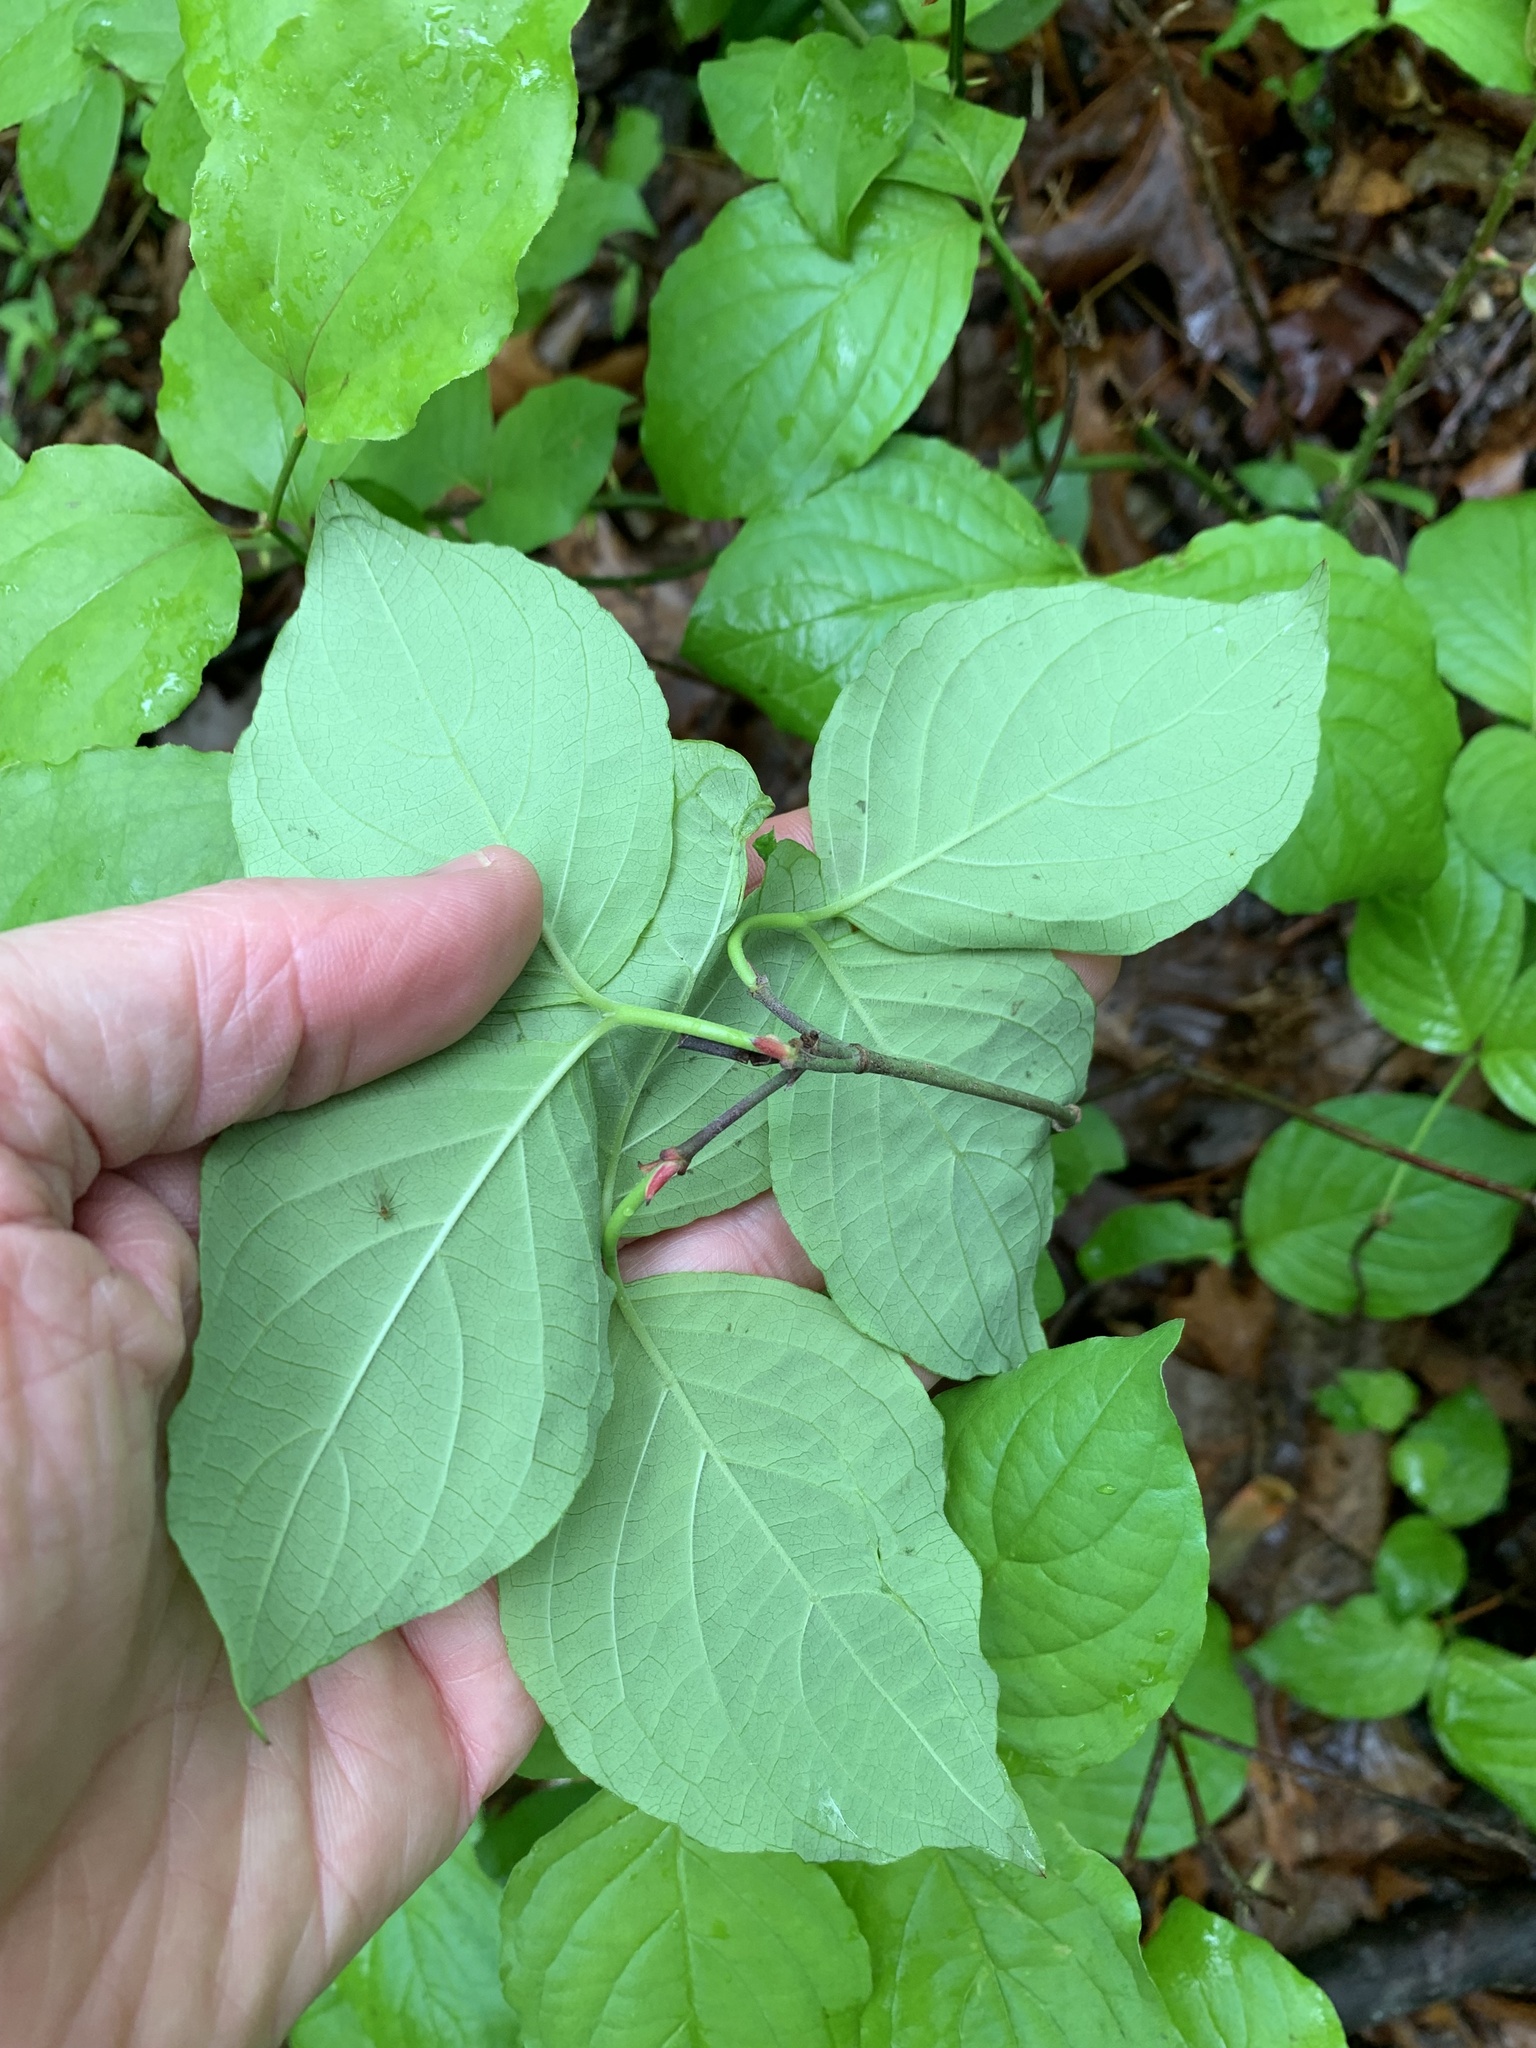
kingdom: Plantae
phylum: Tracheophyta
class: Magnoliopsida
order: Cornales
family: Cornaceae
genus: Cornus
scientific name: Cornus florida
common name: Flowering dogwood
